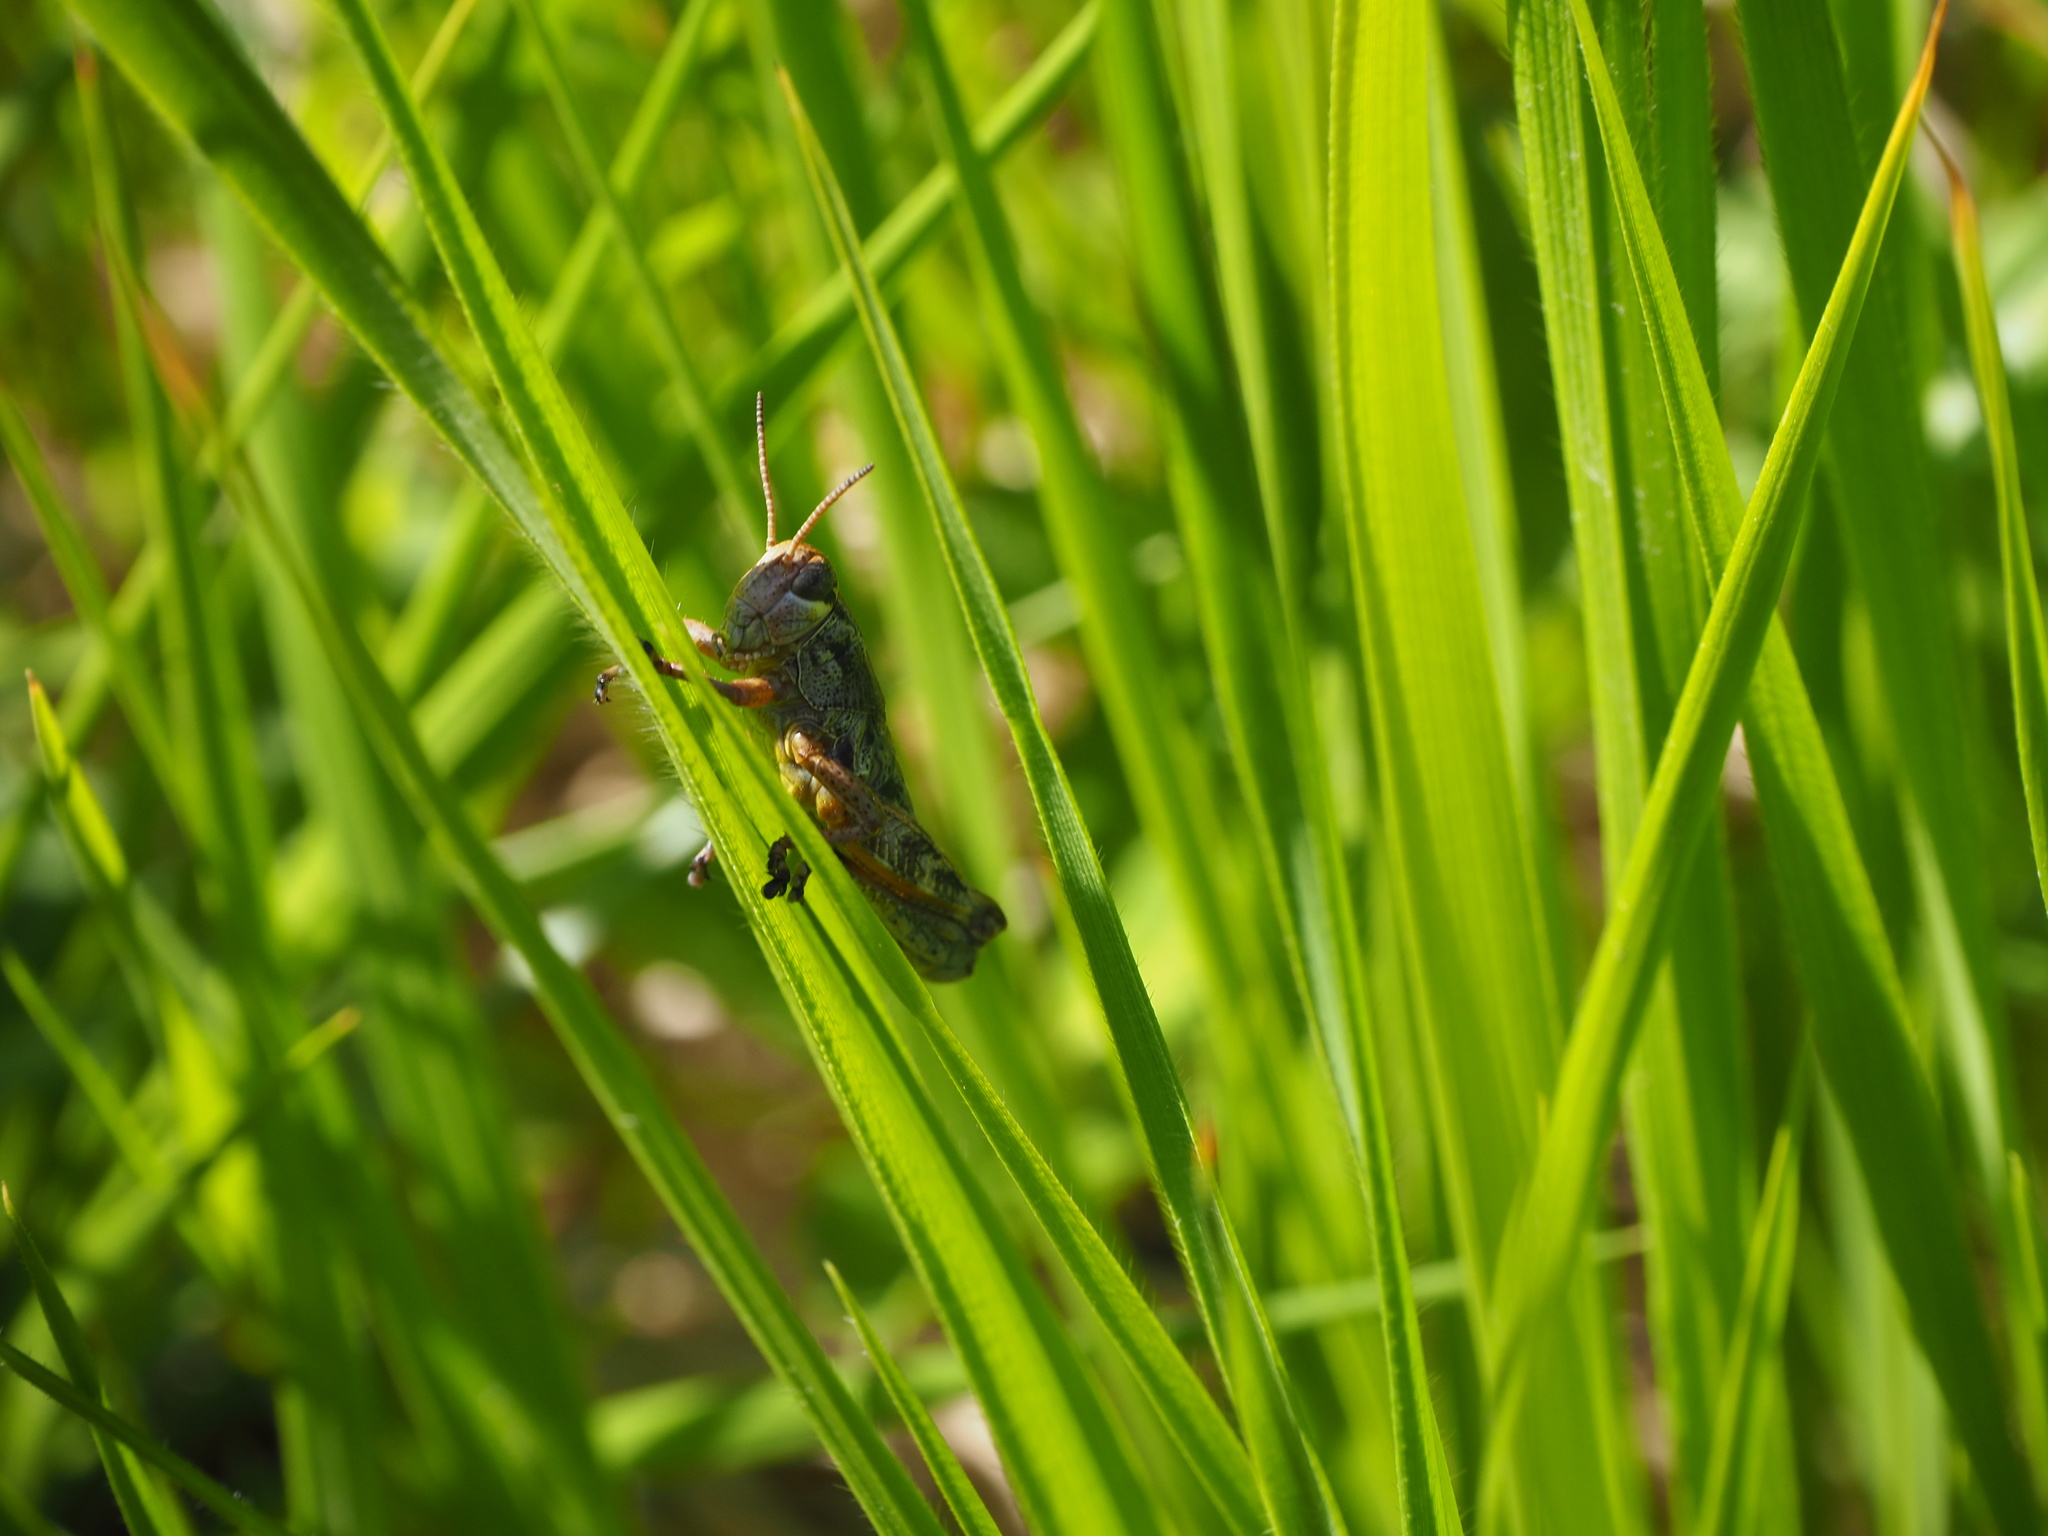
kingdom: Animalia
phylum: Arthropoda
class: Insecta
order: Orthoptera
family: Acrididae
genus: Podisma
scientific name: Podisma emiliae
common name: Emilia mountain grasshopper
